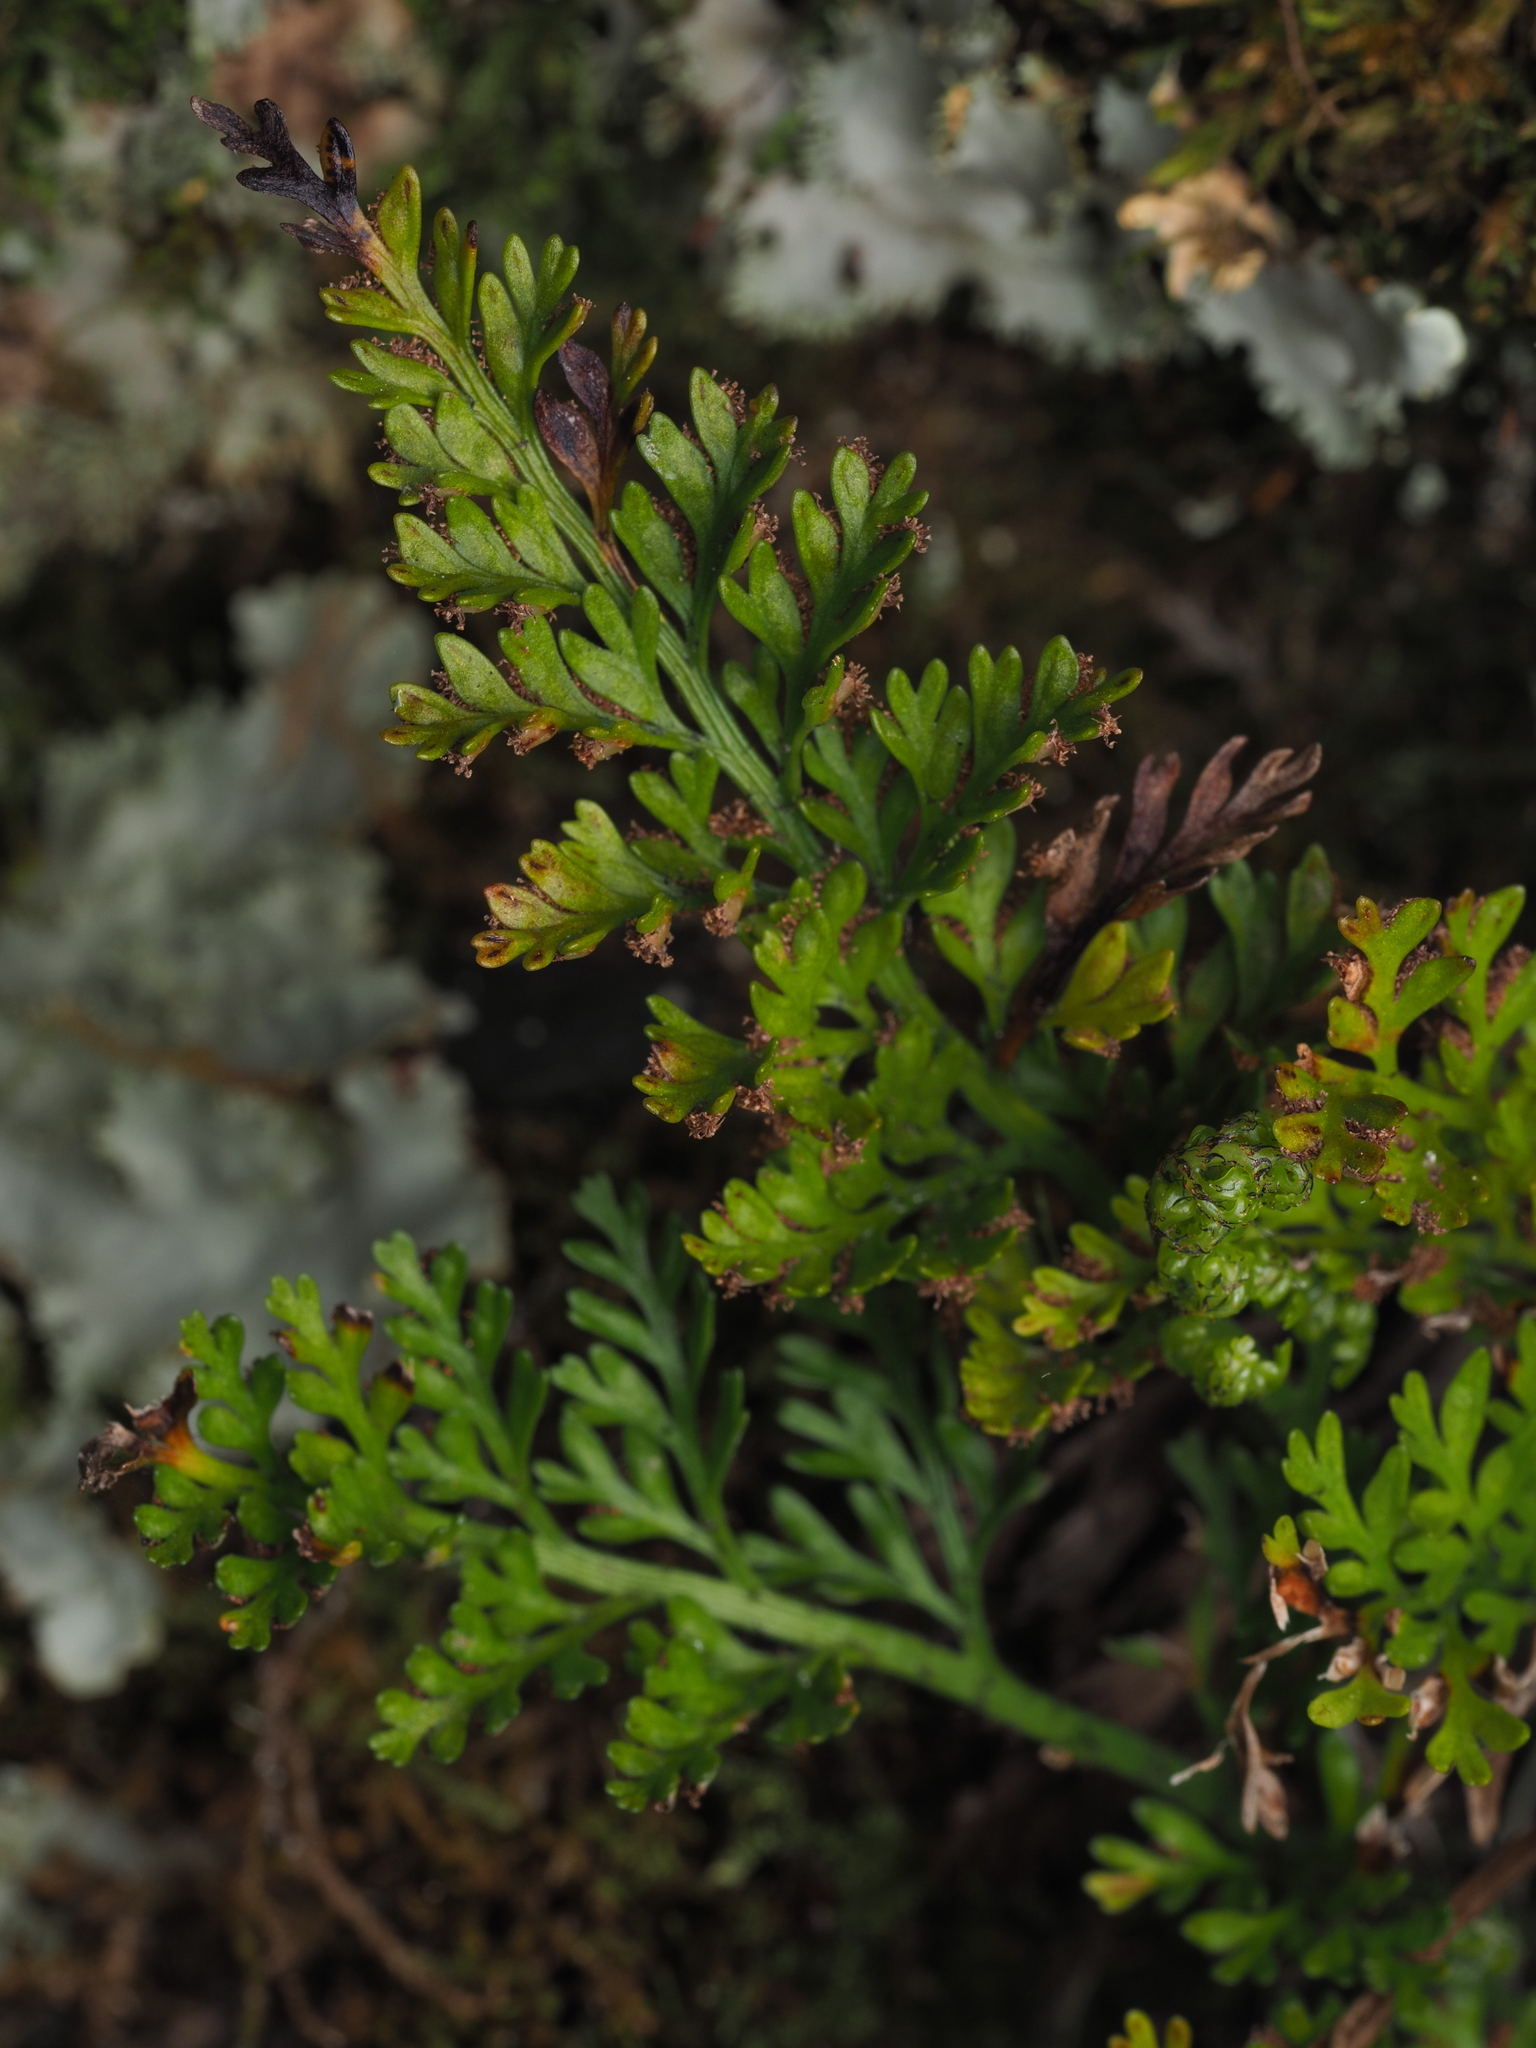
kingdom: Plantae
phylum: Tracheophyta
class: Polypodiopsida
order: Polypodiales
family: Aspleniaceae
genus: Asplenium
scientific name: Asplenium richardii
